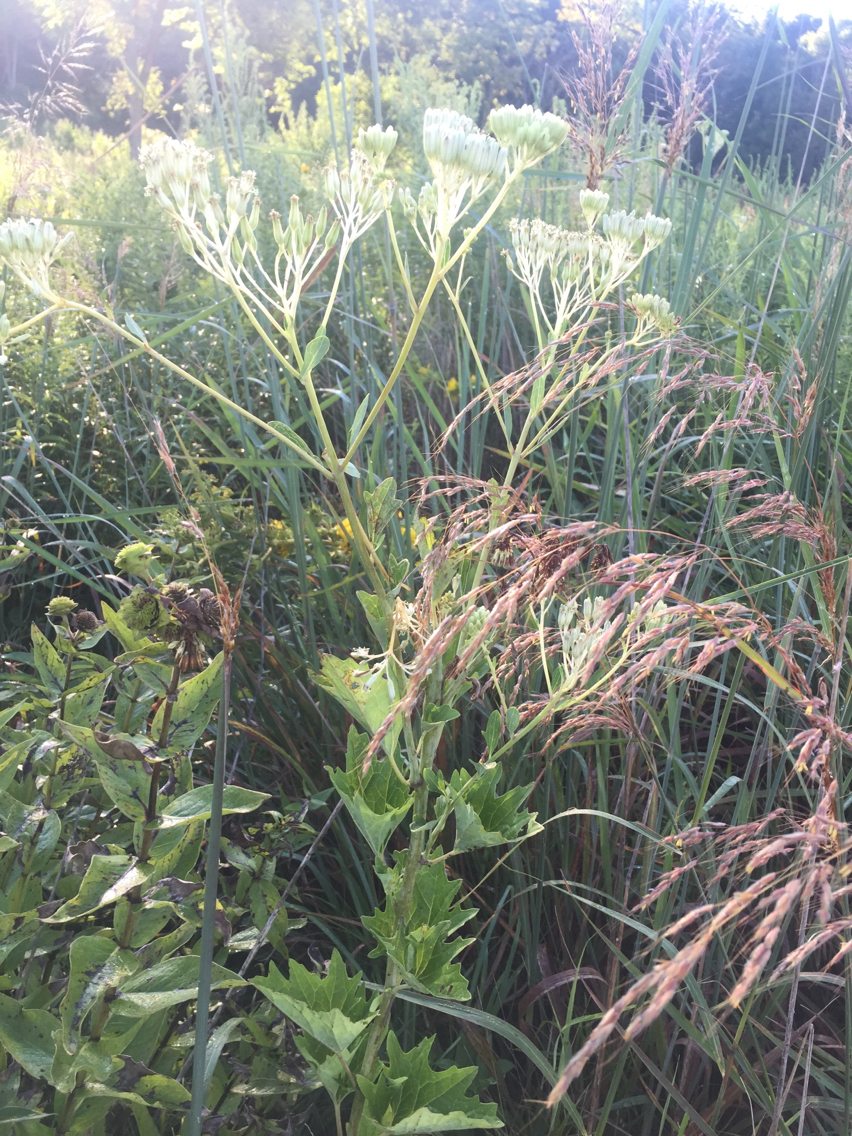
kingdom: Plantae
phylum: Tracheophyta
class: Magnoliopsida
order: Asterales
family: Asteraceae
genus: Arnoglossum
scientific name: Arnoglossum atriplicifolium
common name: Pale indian-plantain
